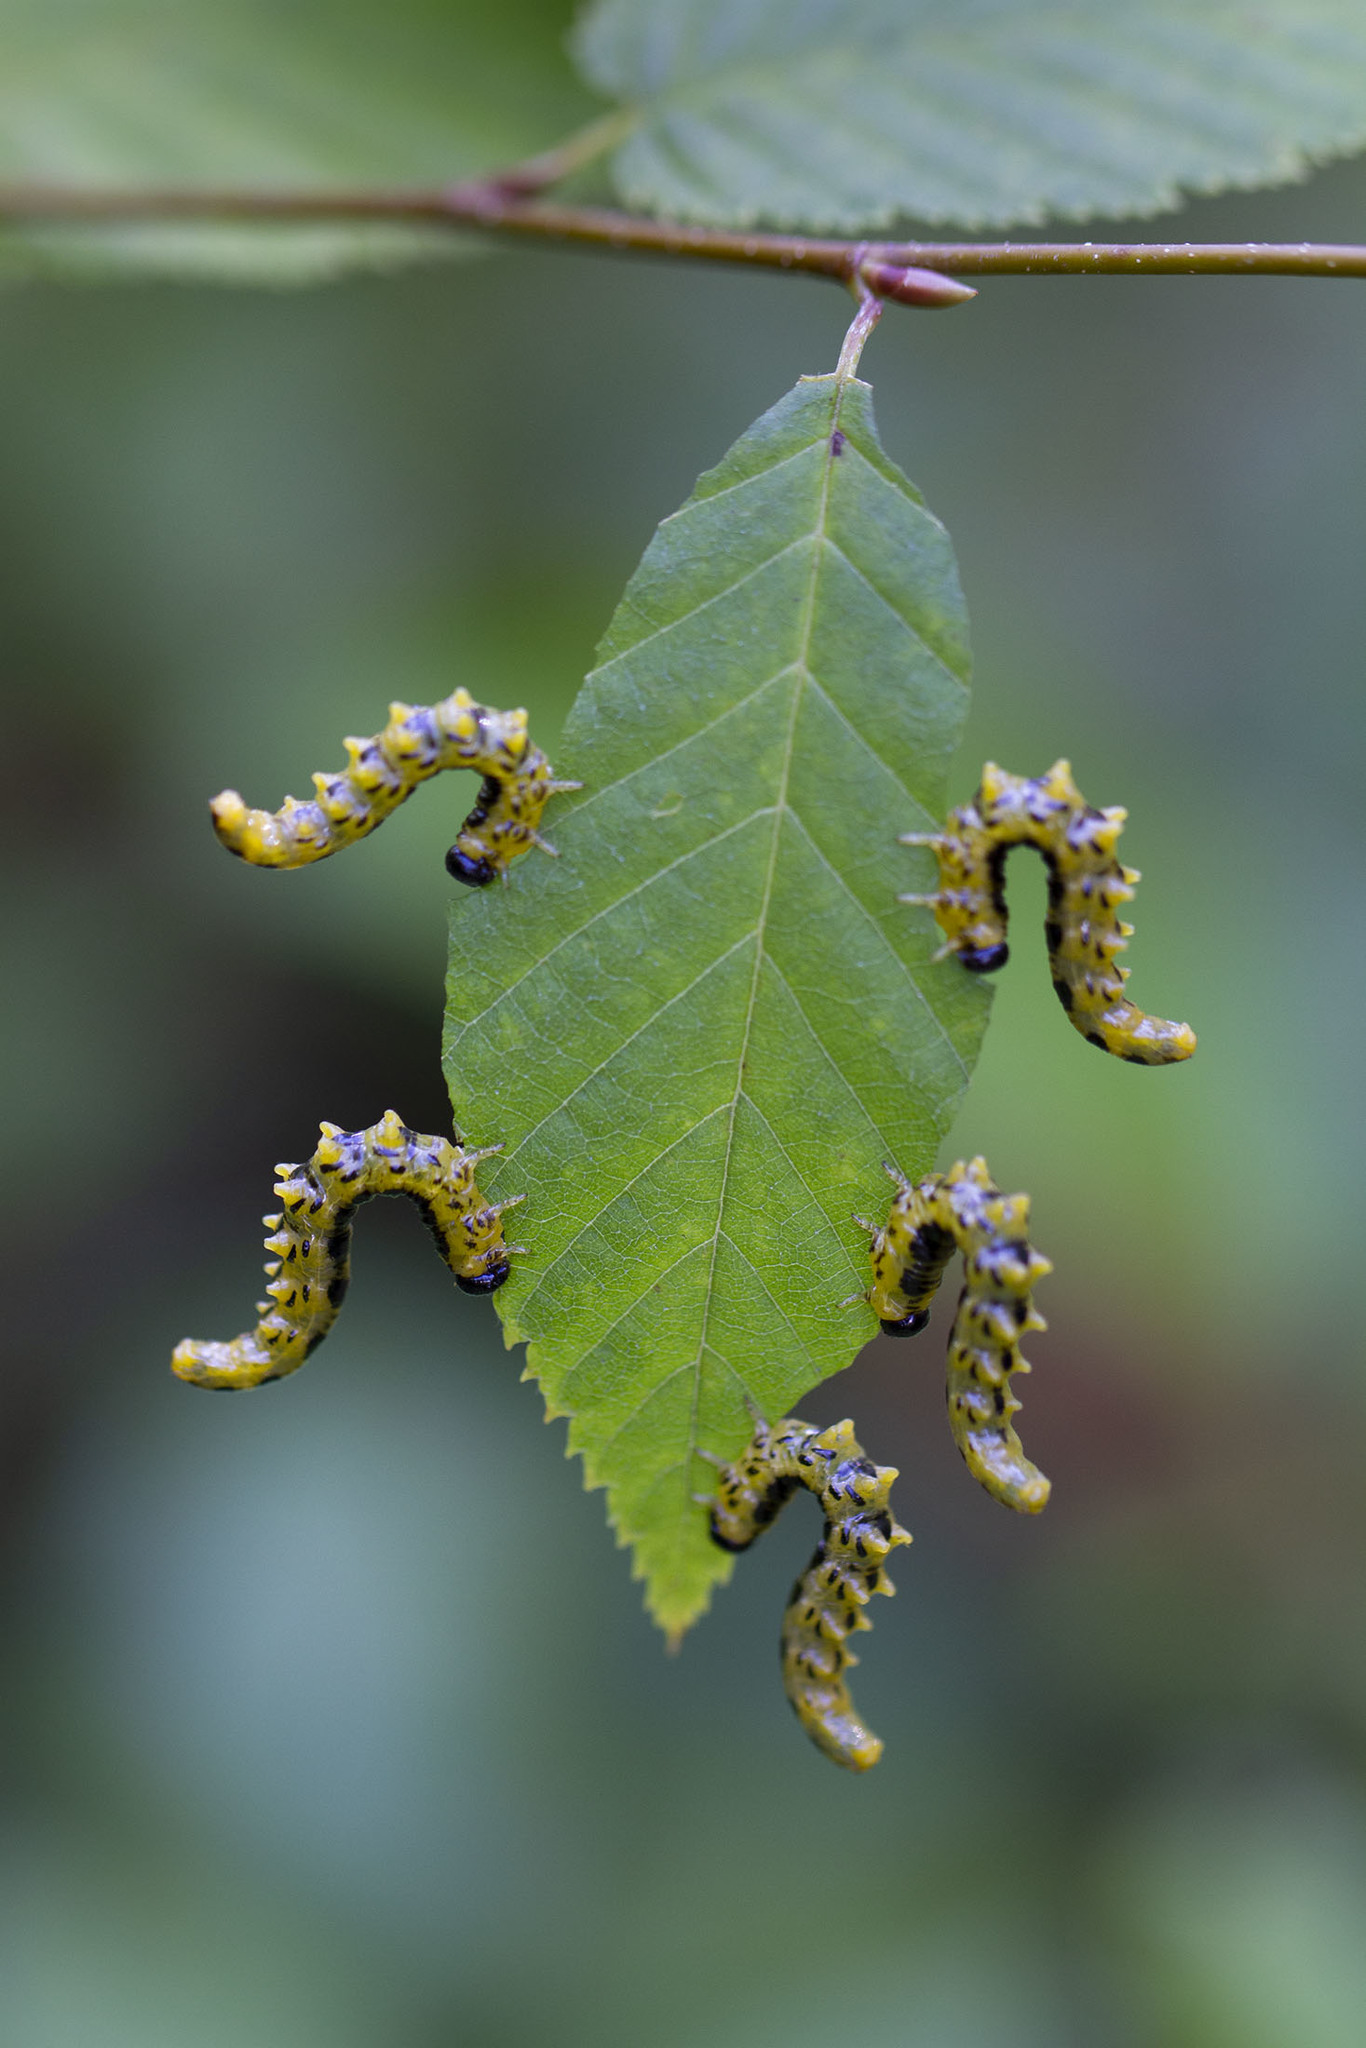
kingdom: Animalia
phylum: Arthropoda
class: Insecta
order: Hymenoptera
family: Tenthredinidae
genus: Nematus
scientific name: Nematus
